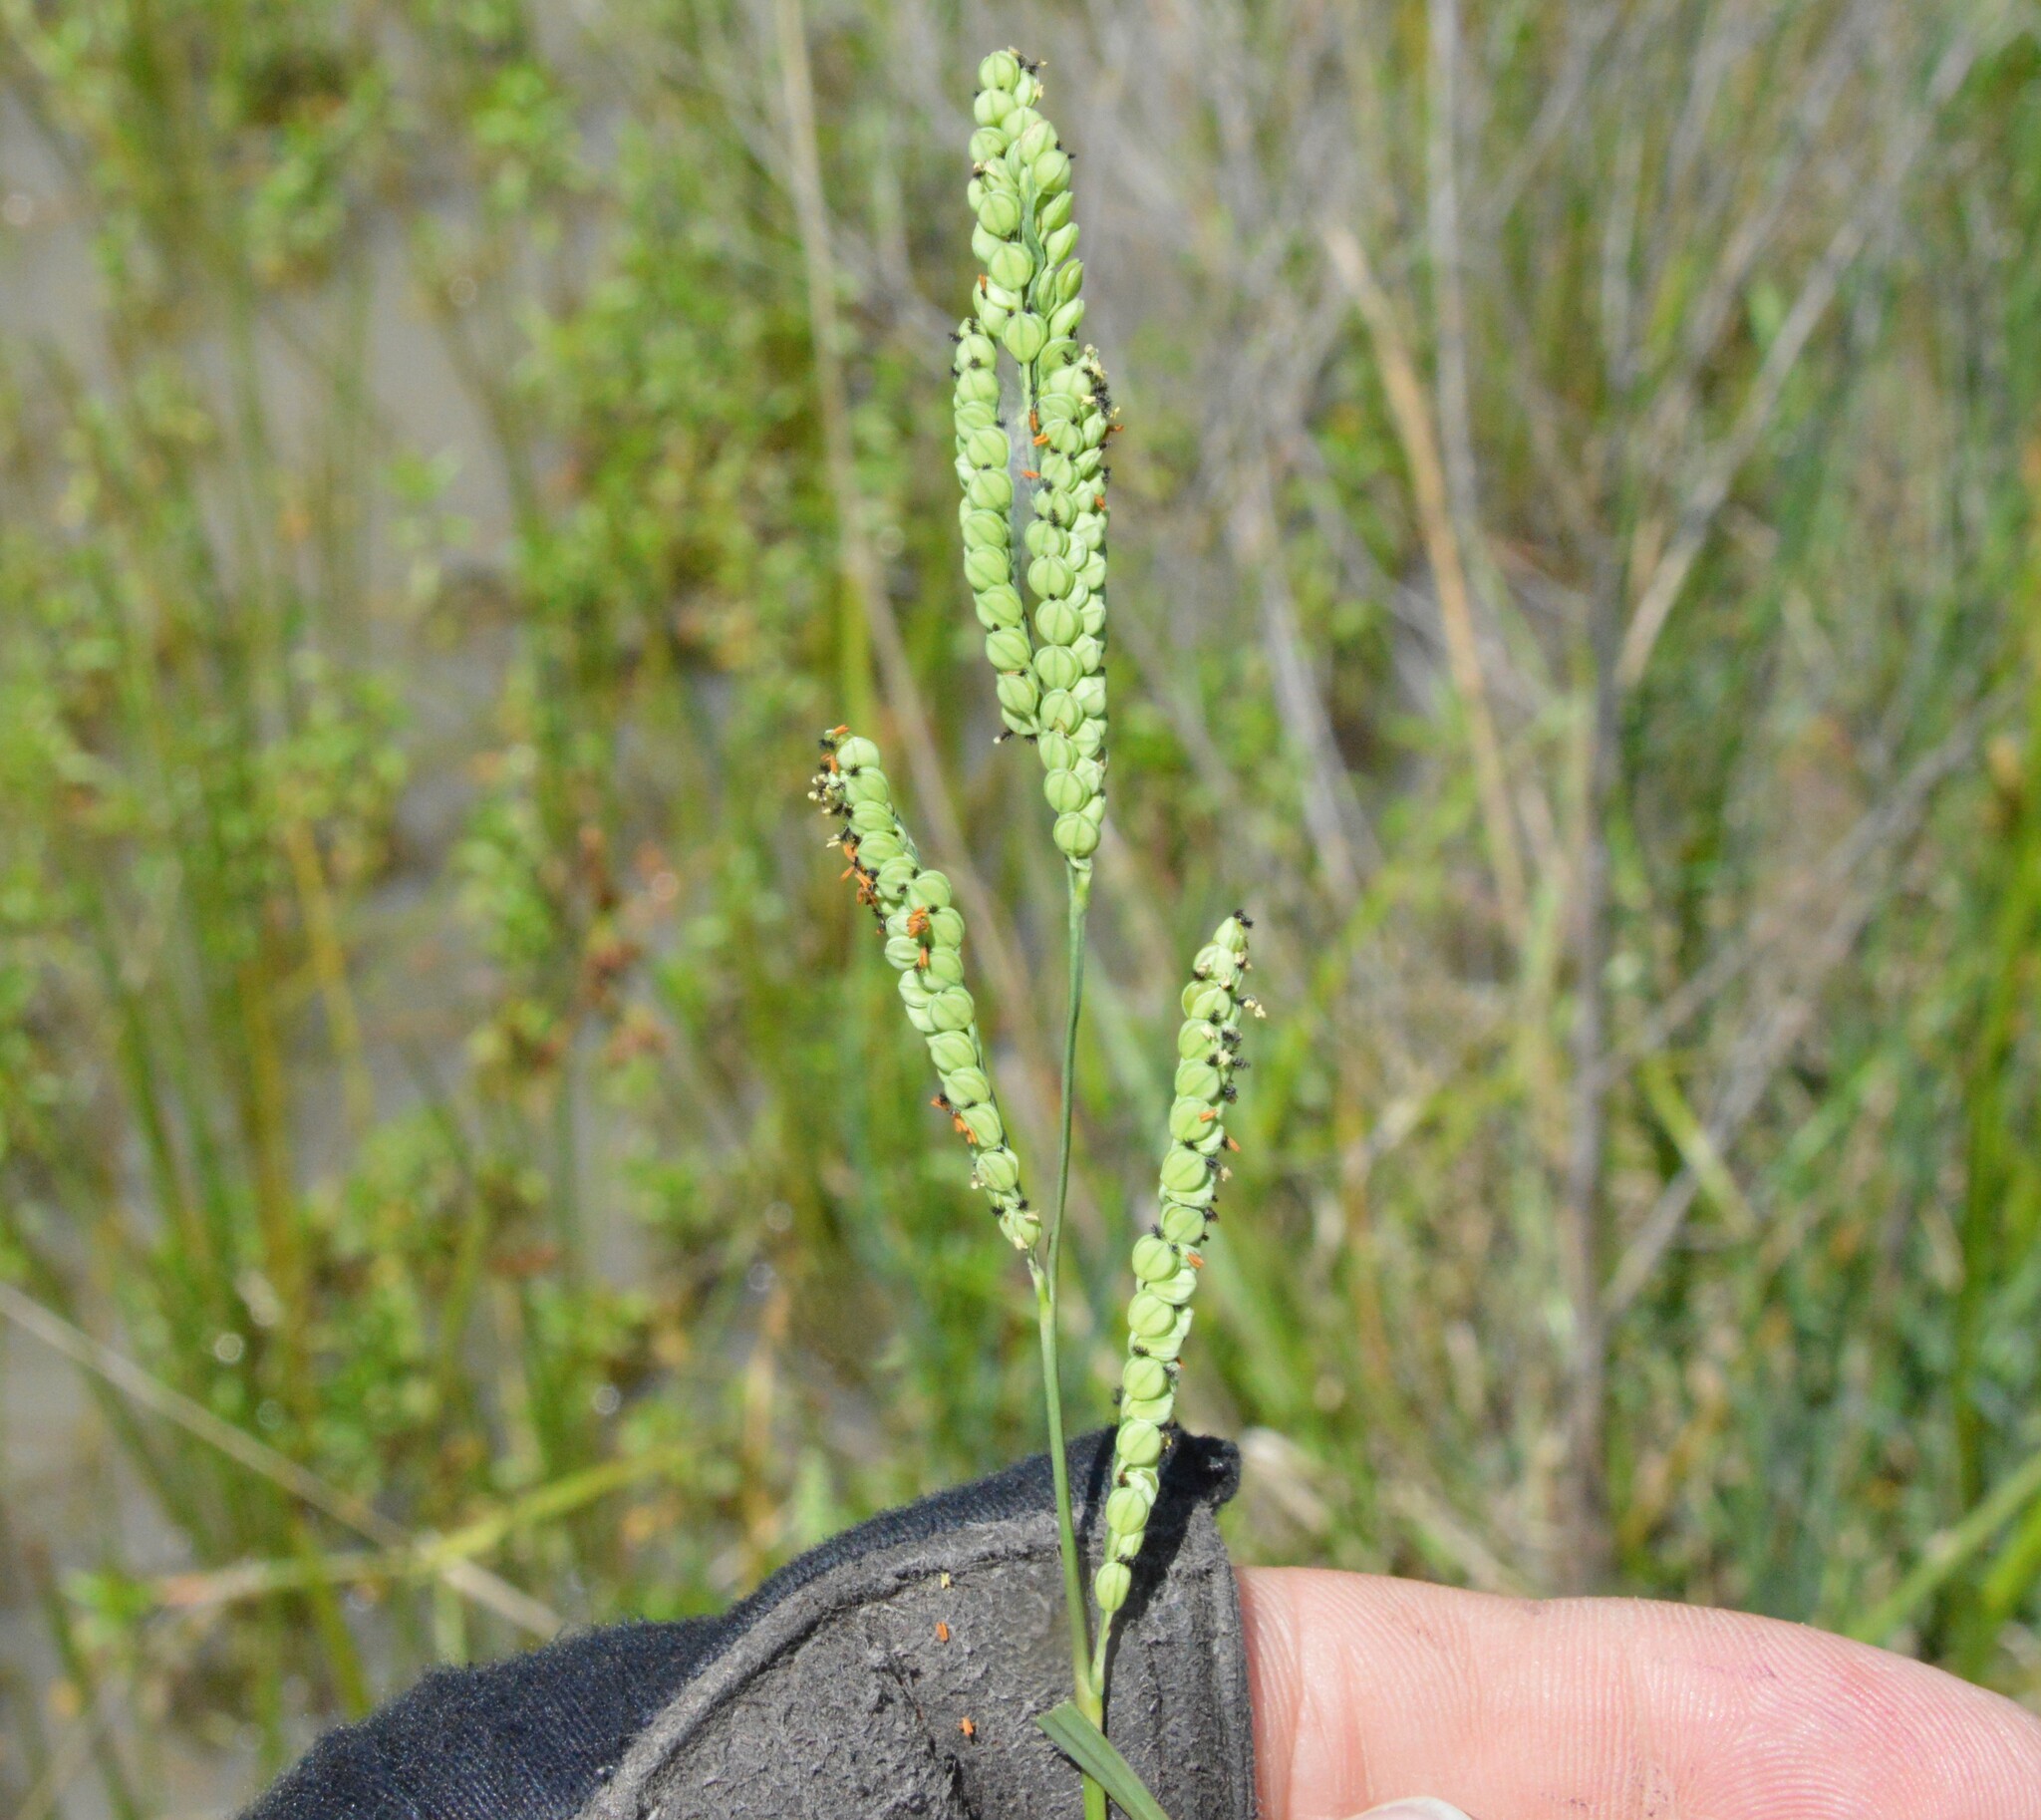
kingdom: Plantae
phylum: Tracheophyta
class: Liliopsida
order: Poales
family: Poaceae
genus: Paspalum
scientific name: Paspalum praecox
